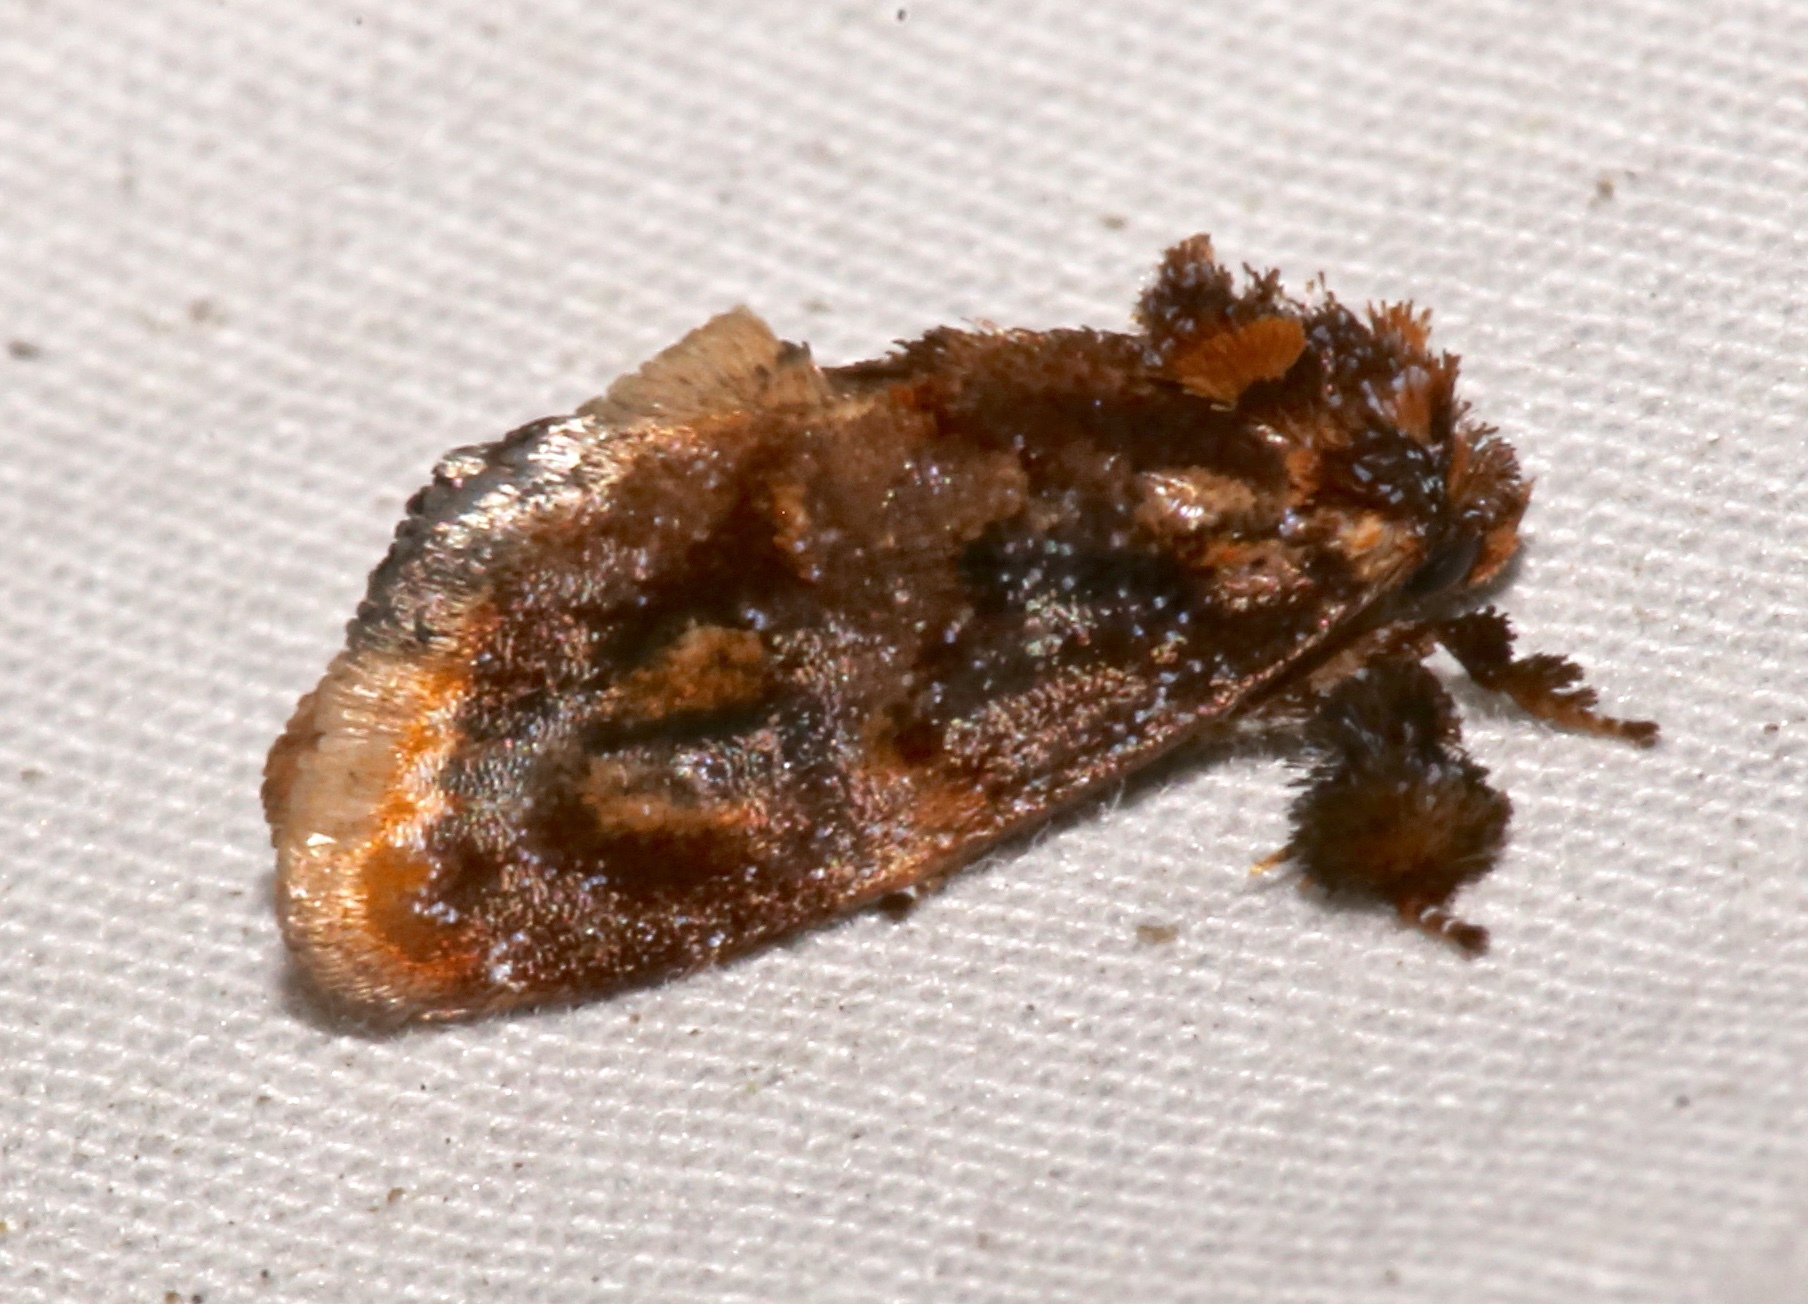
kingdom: Animalia
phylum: Arthropoda
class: Insecta
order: Lepidoptera
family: Limacodidae
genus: Isochaetes
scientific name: Isochaetes beutenmuelleri
